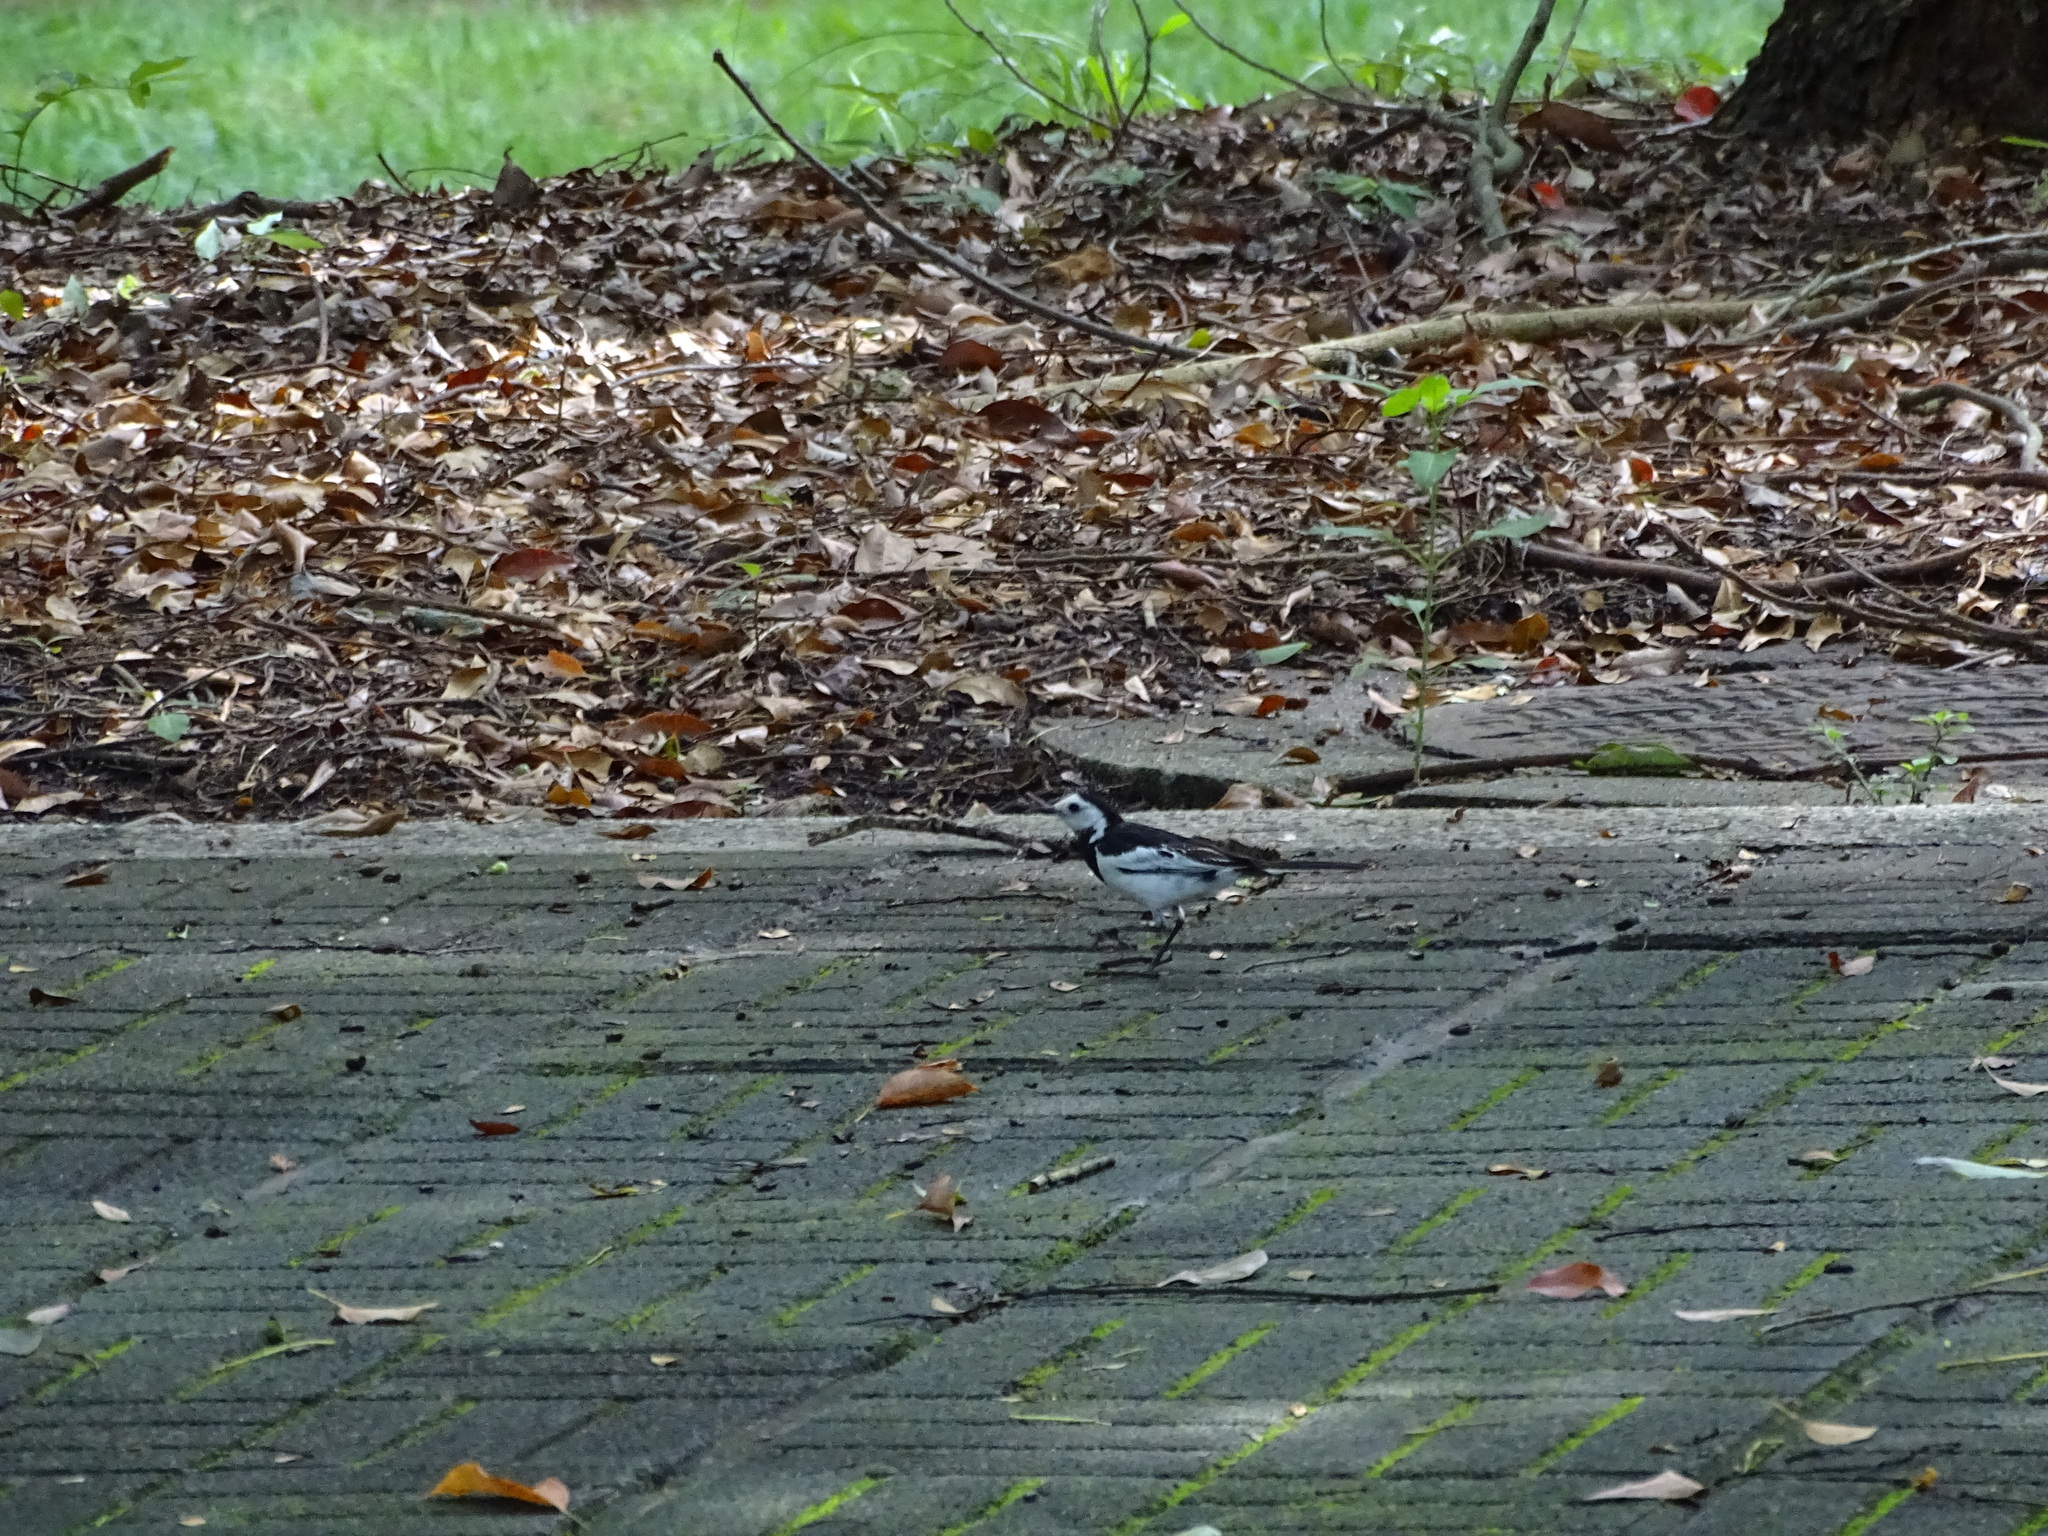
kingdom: Animalia
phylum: Chordata
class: Aves
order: Passeriformes
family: Motacillidae
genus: Motacilla
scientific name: Motacilla alba
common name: White wagtail
